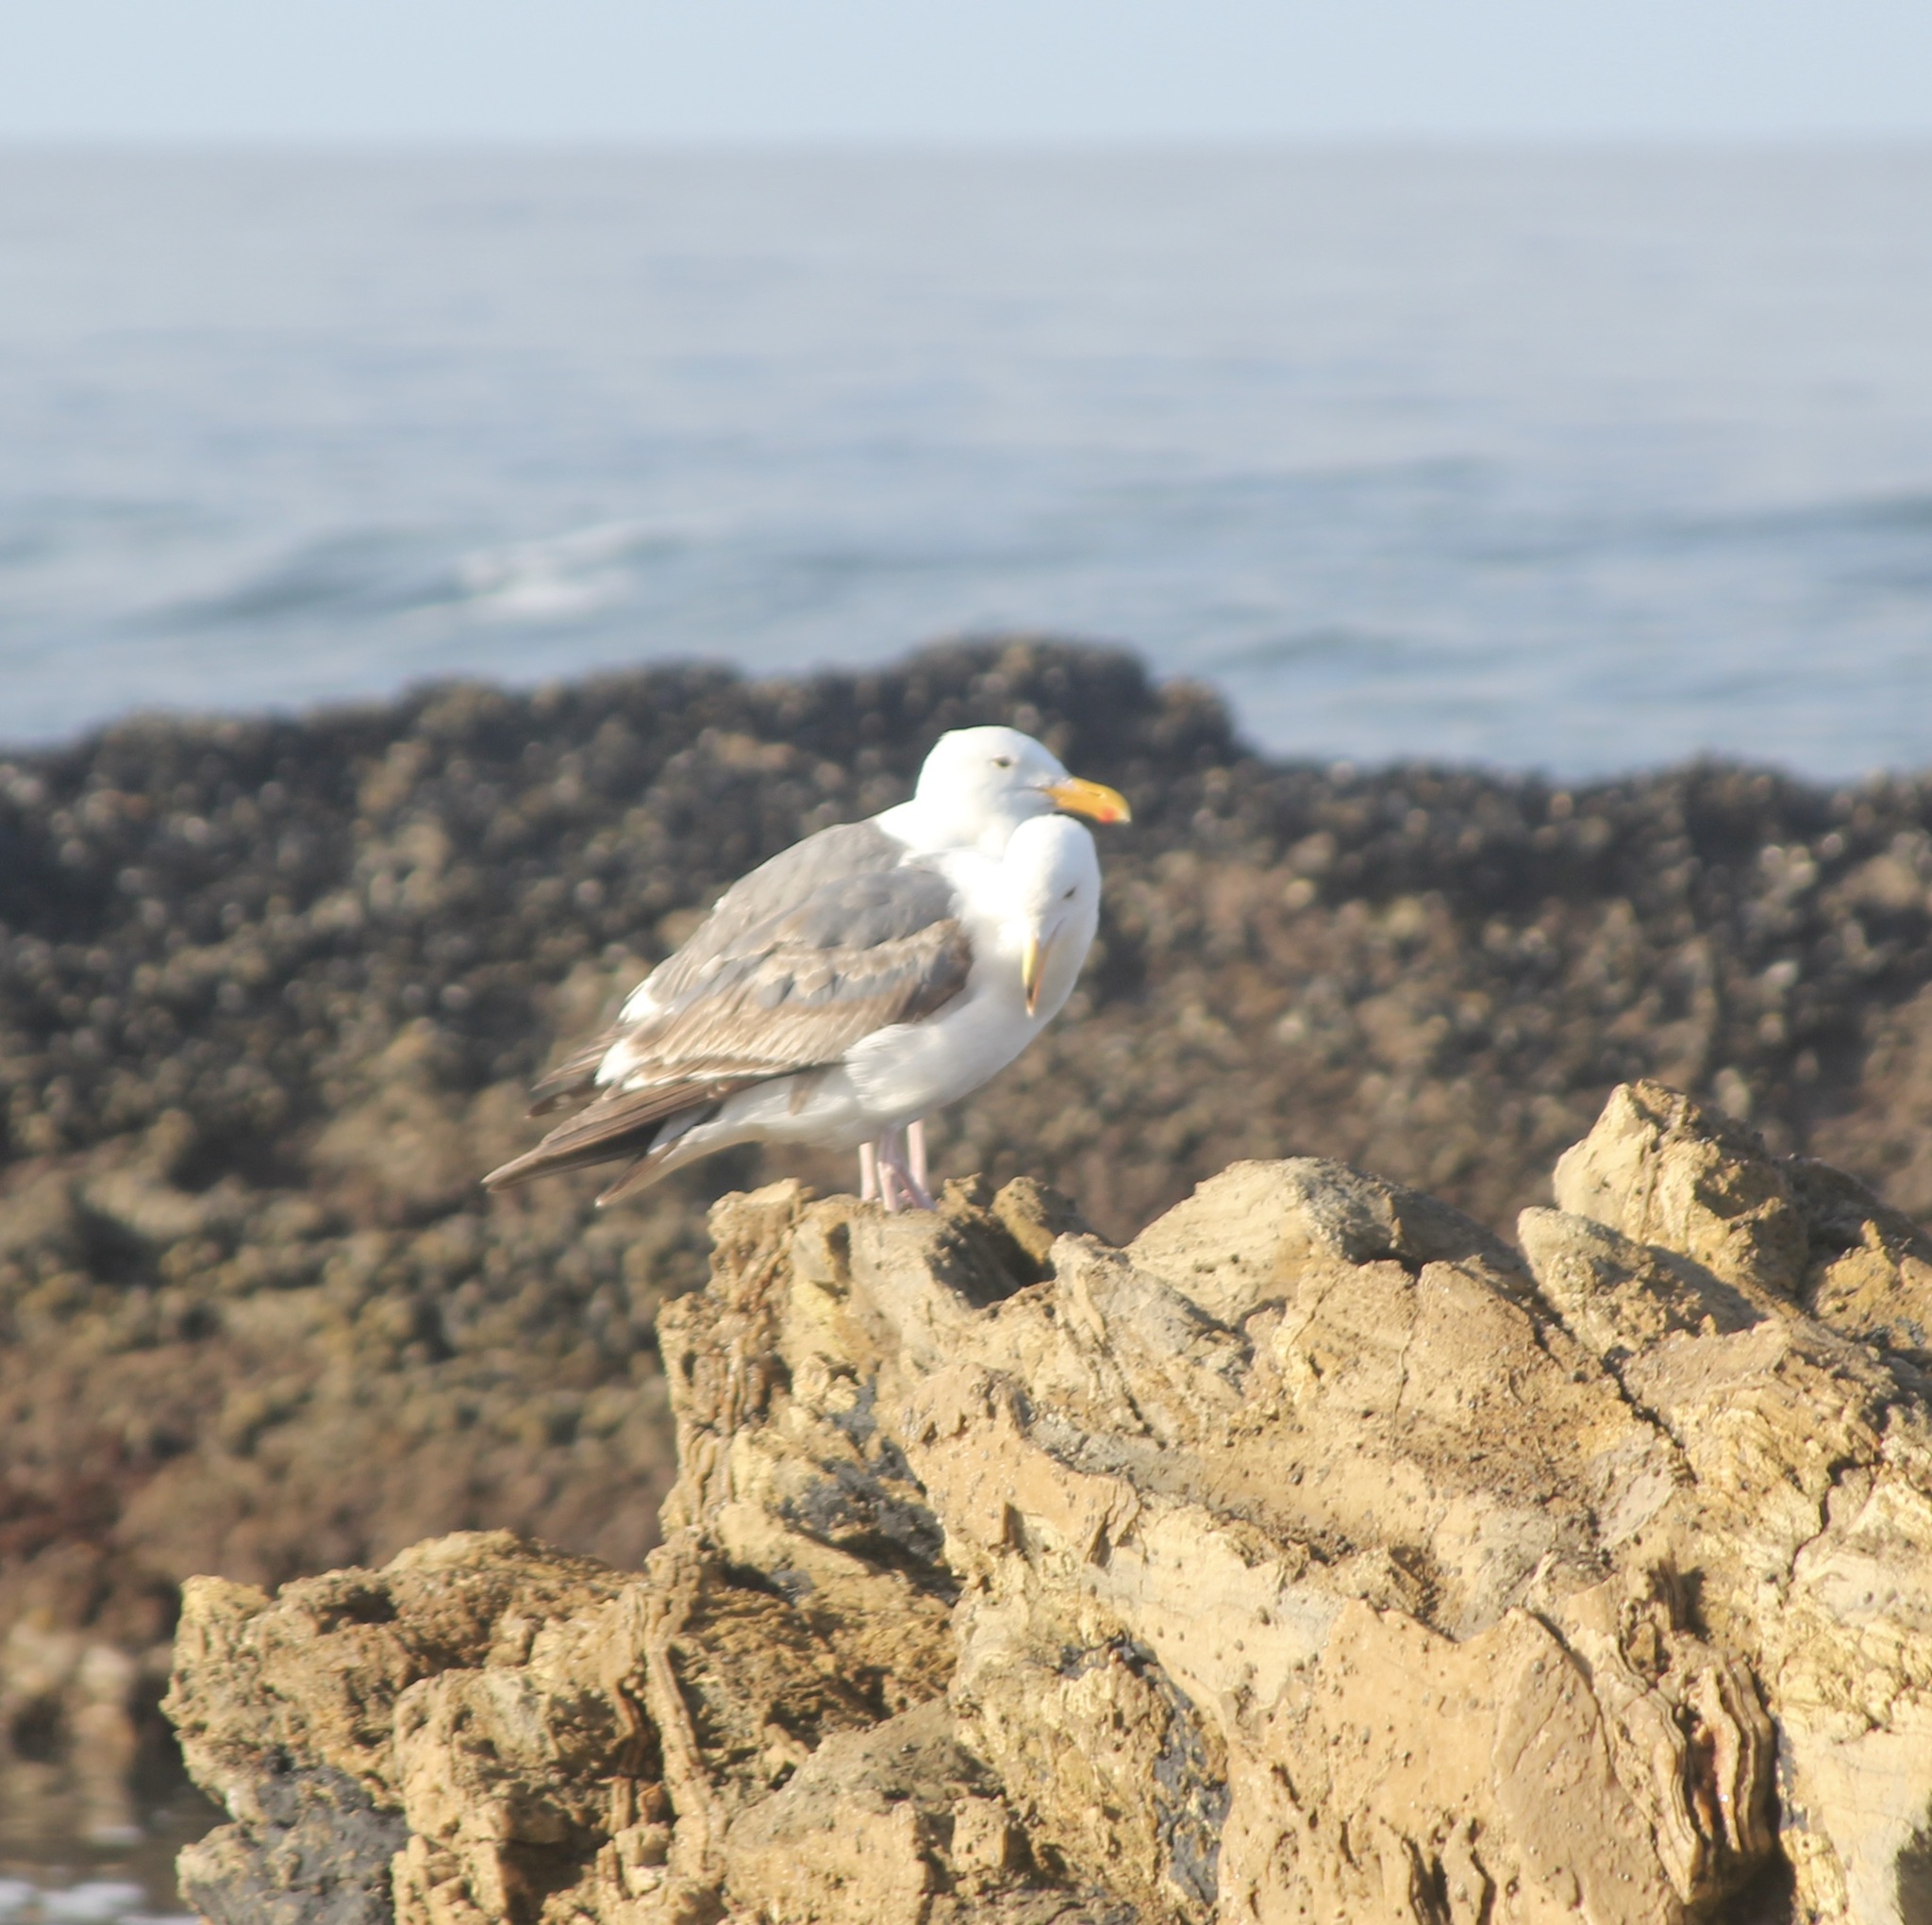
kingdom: Animalia
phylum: Chordata
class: Aves
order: Charadriiformes
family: Laridae
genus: Larus
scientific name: Larus occidentalis
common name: Western gull
